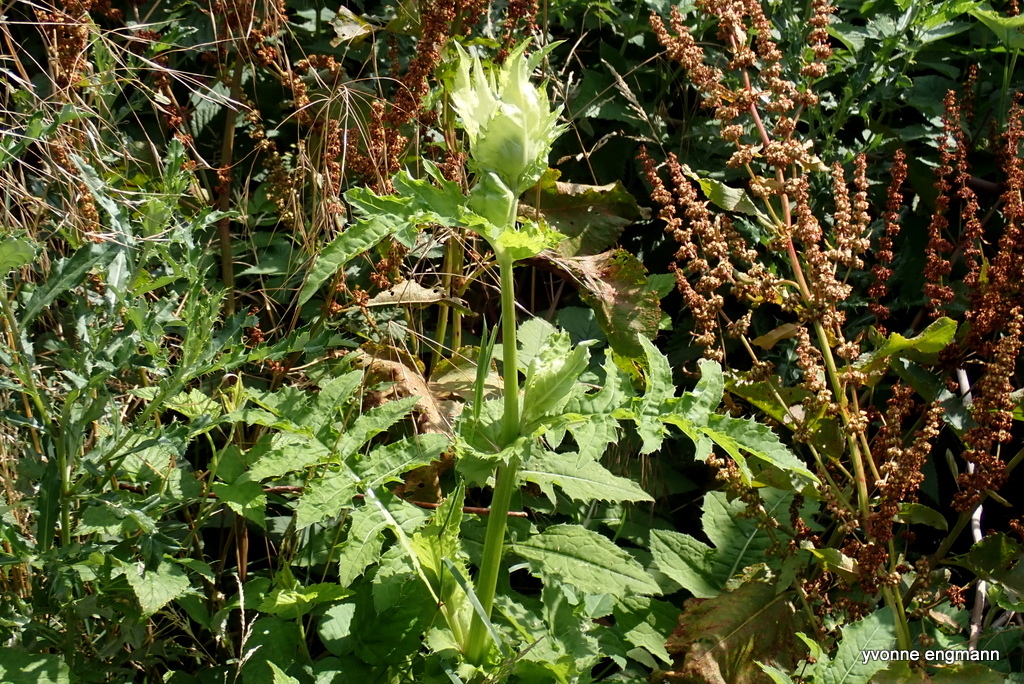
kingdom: Plantae
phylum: Tracheophyta
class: Magnoliopsida
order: Asterales
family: Asteraceae
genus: Cirsium
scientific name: Cirsium oleraceum
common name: Cabbage thistle
